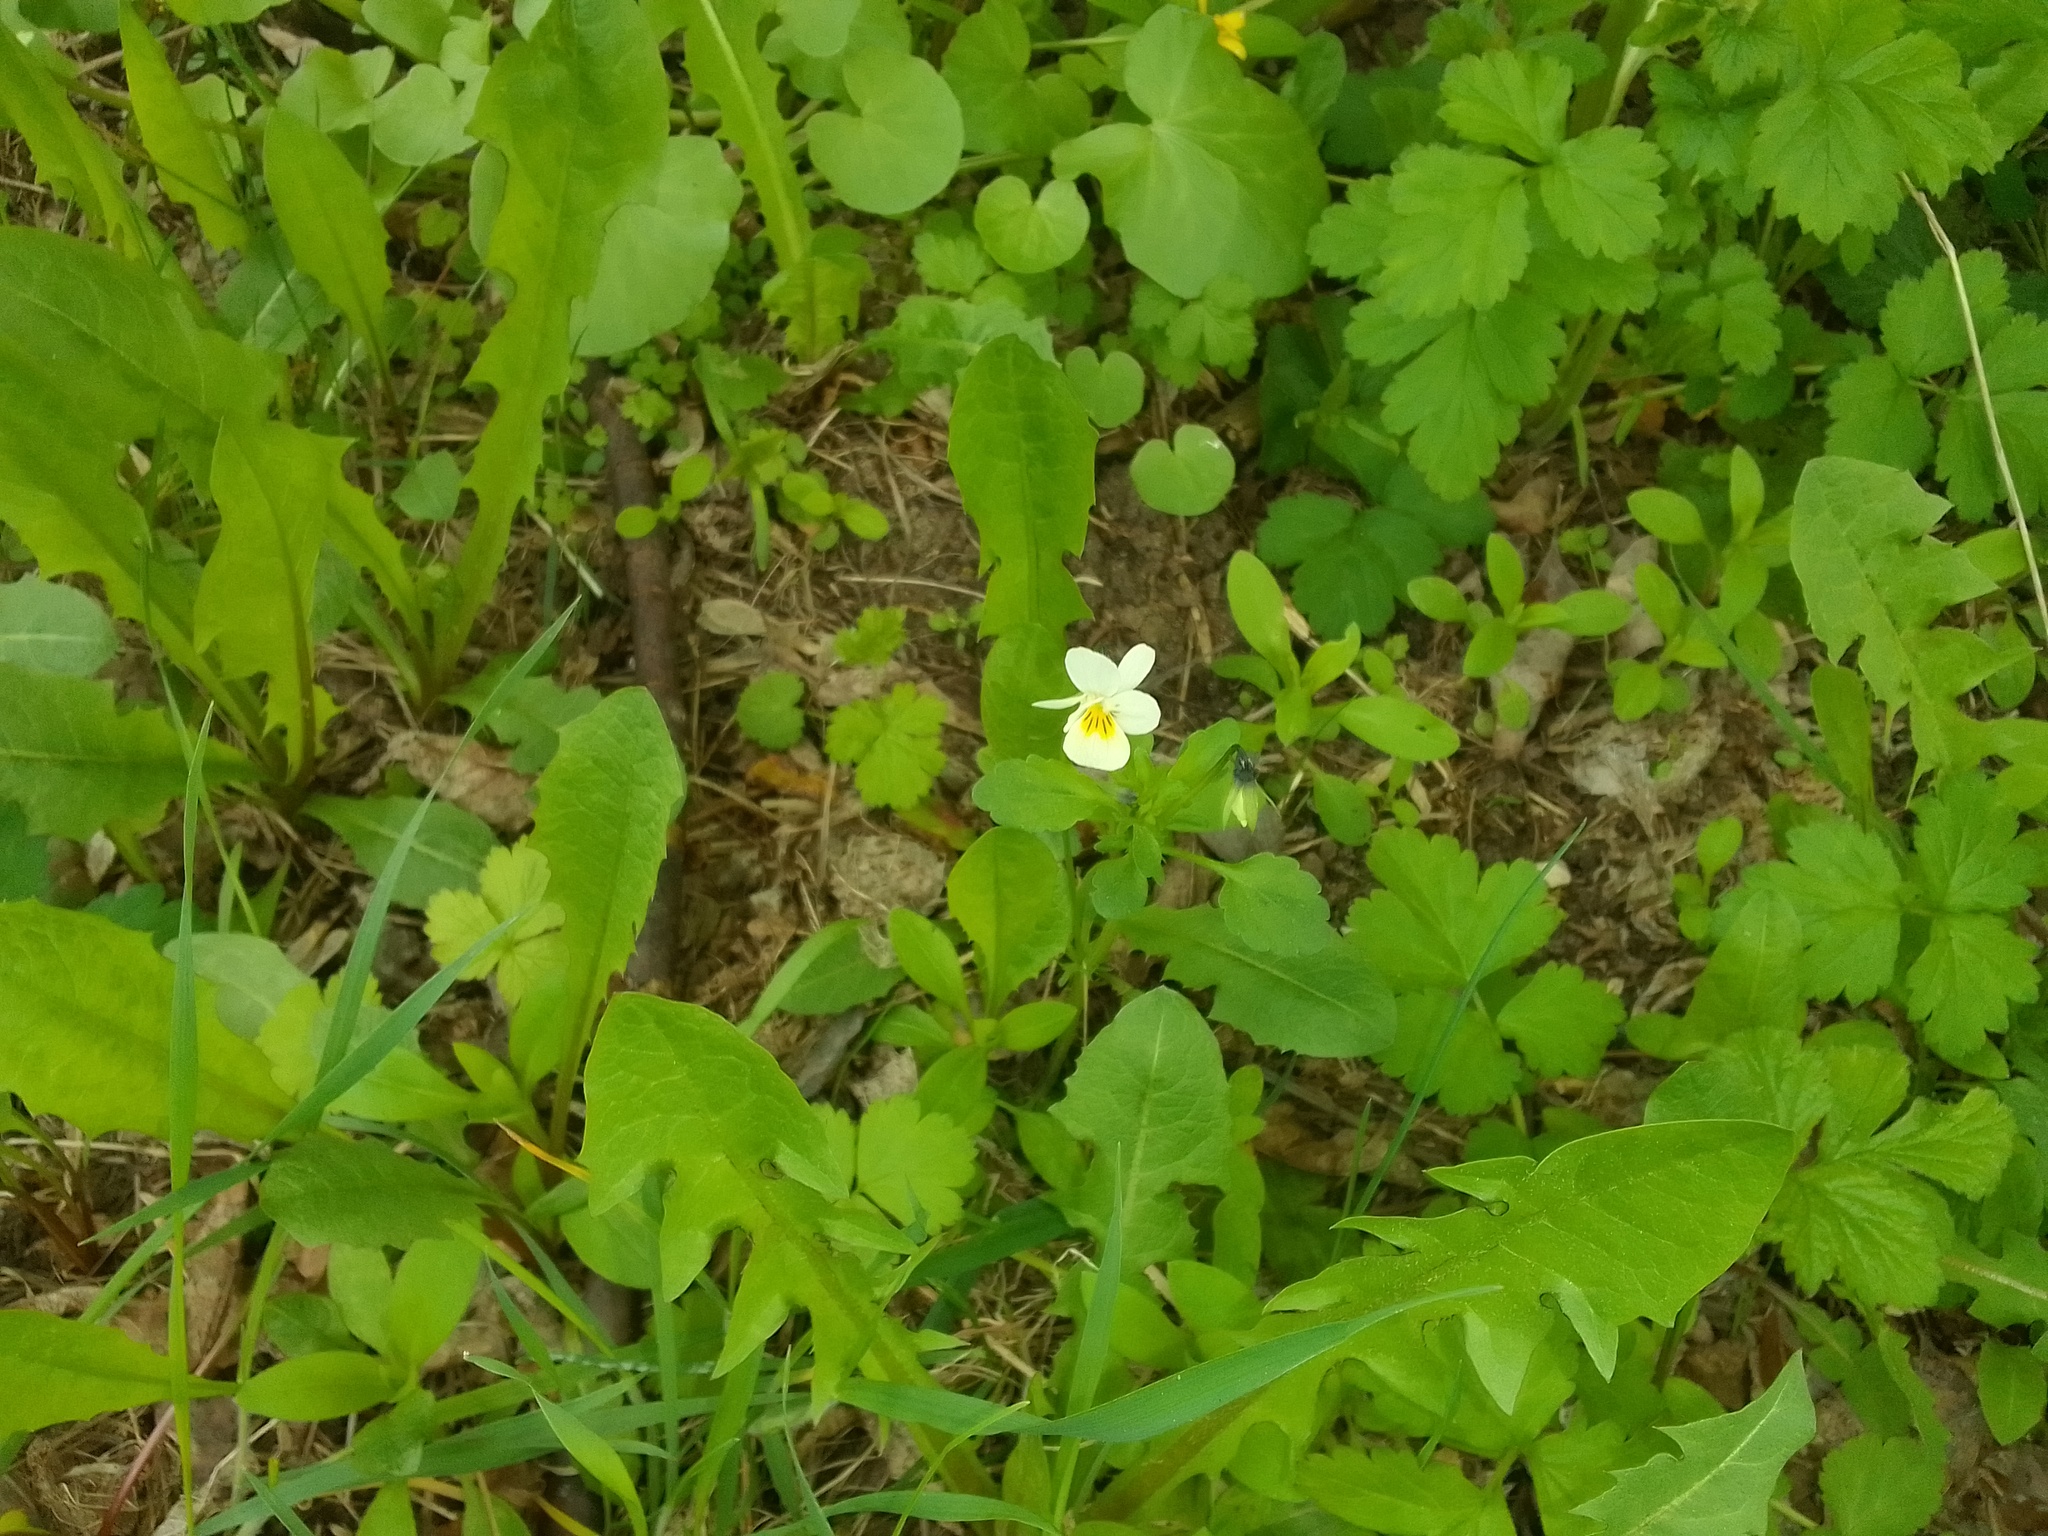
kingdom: Plantae
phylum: Tracheophyta
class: Magnoliopsida
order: Malpighiales
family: Violaceae
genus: Viola
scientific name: Viola arvensis
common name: Field pansy
